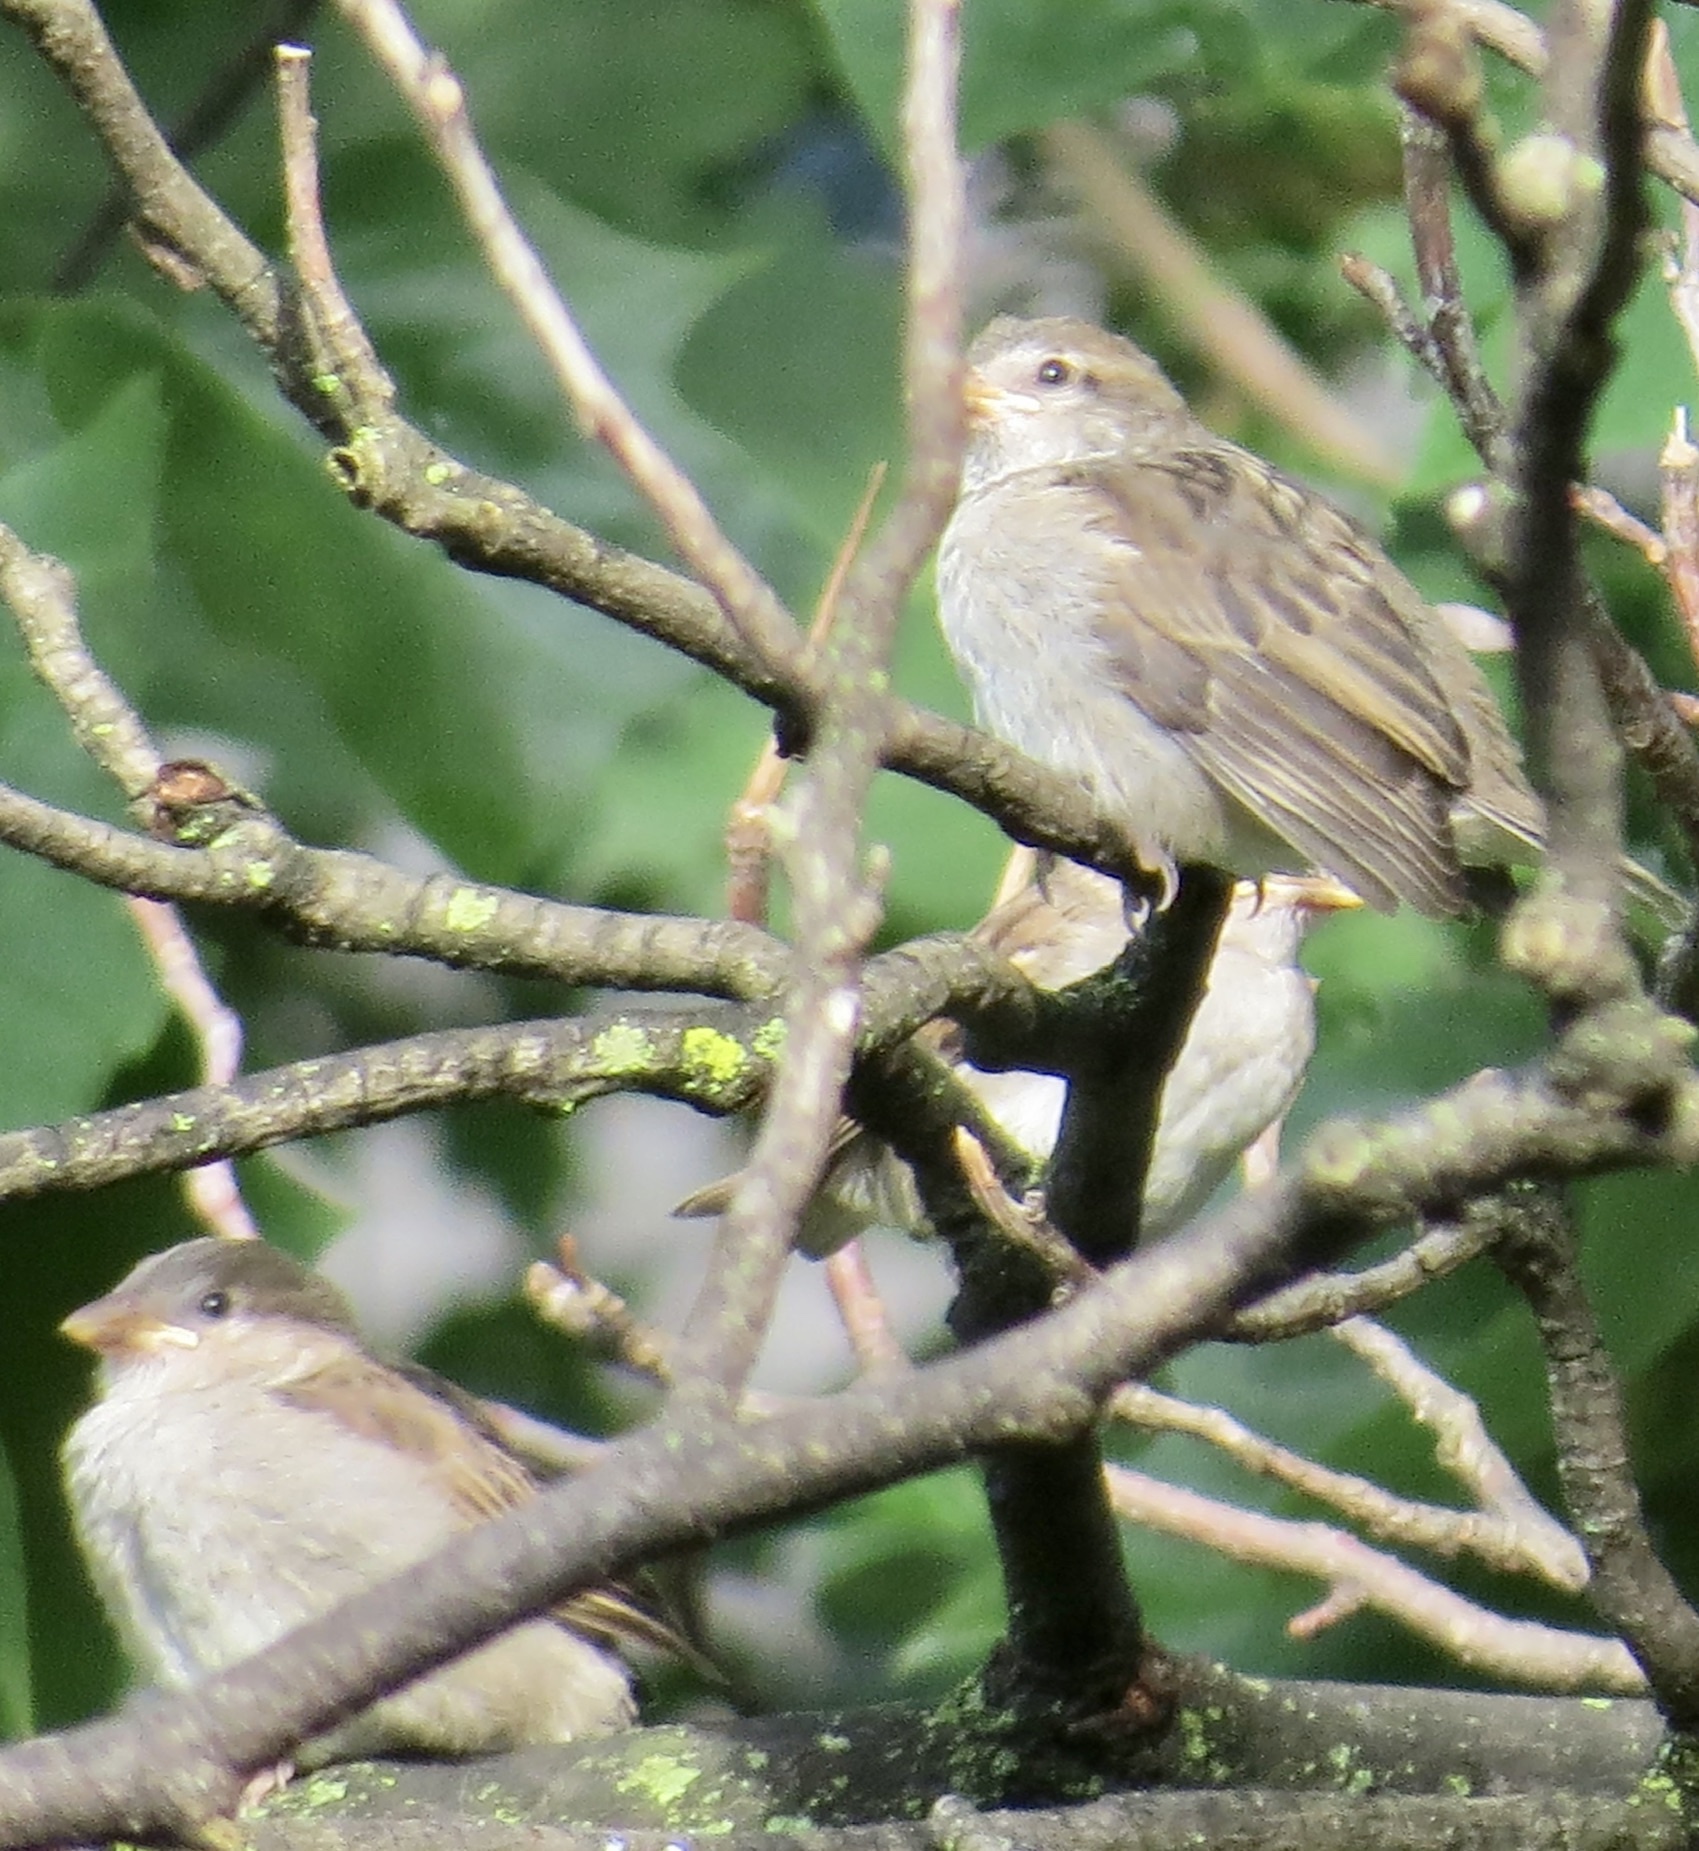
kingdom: Animalia
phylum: Chordata
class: Aves
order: Passeriformes
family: Passeridae
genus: Passer
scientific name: Passer domesticus
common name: House sparrow
